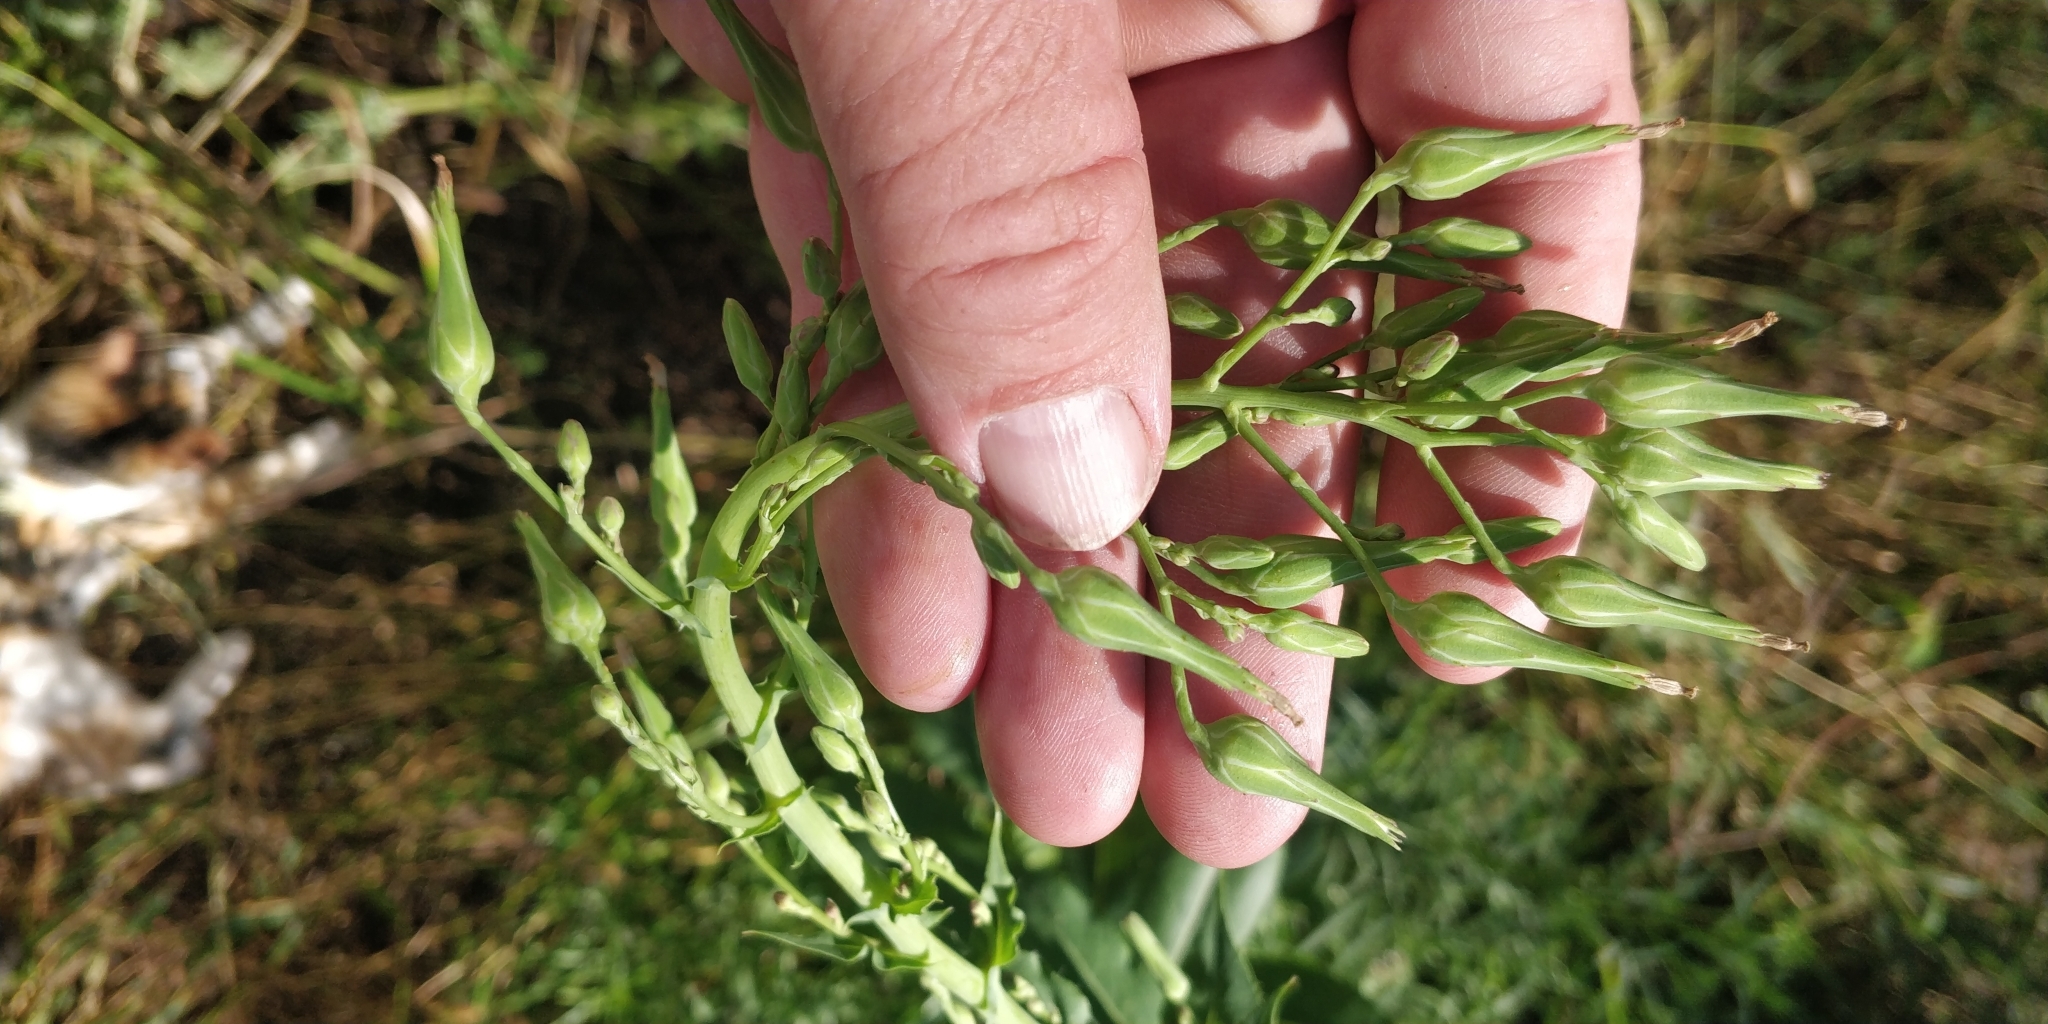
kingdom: Plantae
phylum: Tracheophyta
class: Magnoliopsida
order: Asterales
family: Asteraceae
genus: Lactuca
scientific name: Lactuca ludoviciana
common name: Louisiana lettuce
